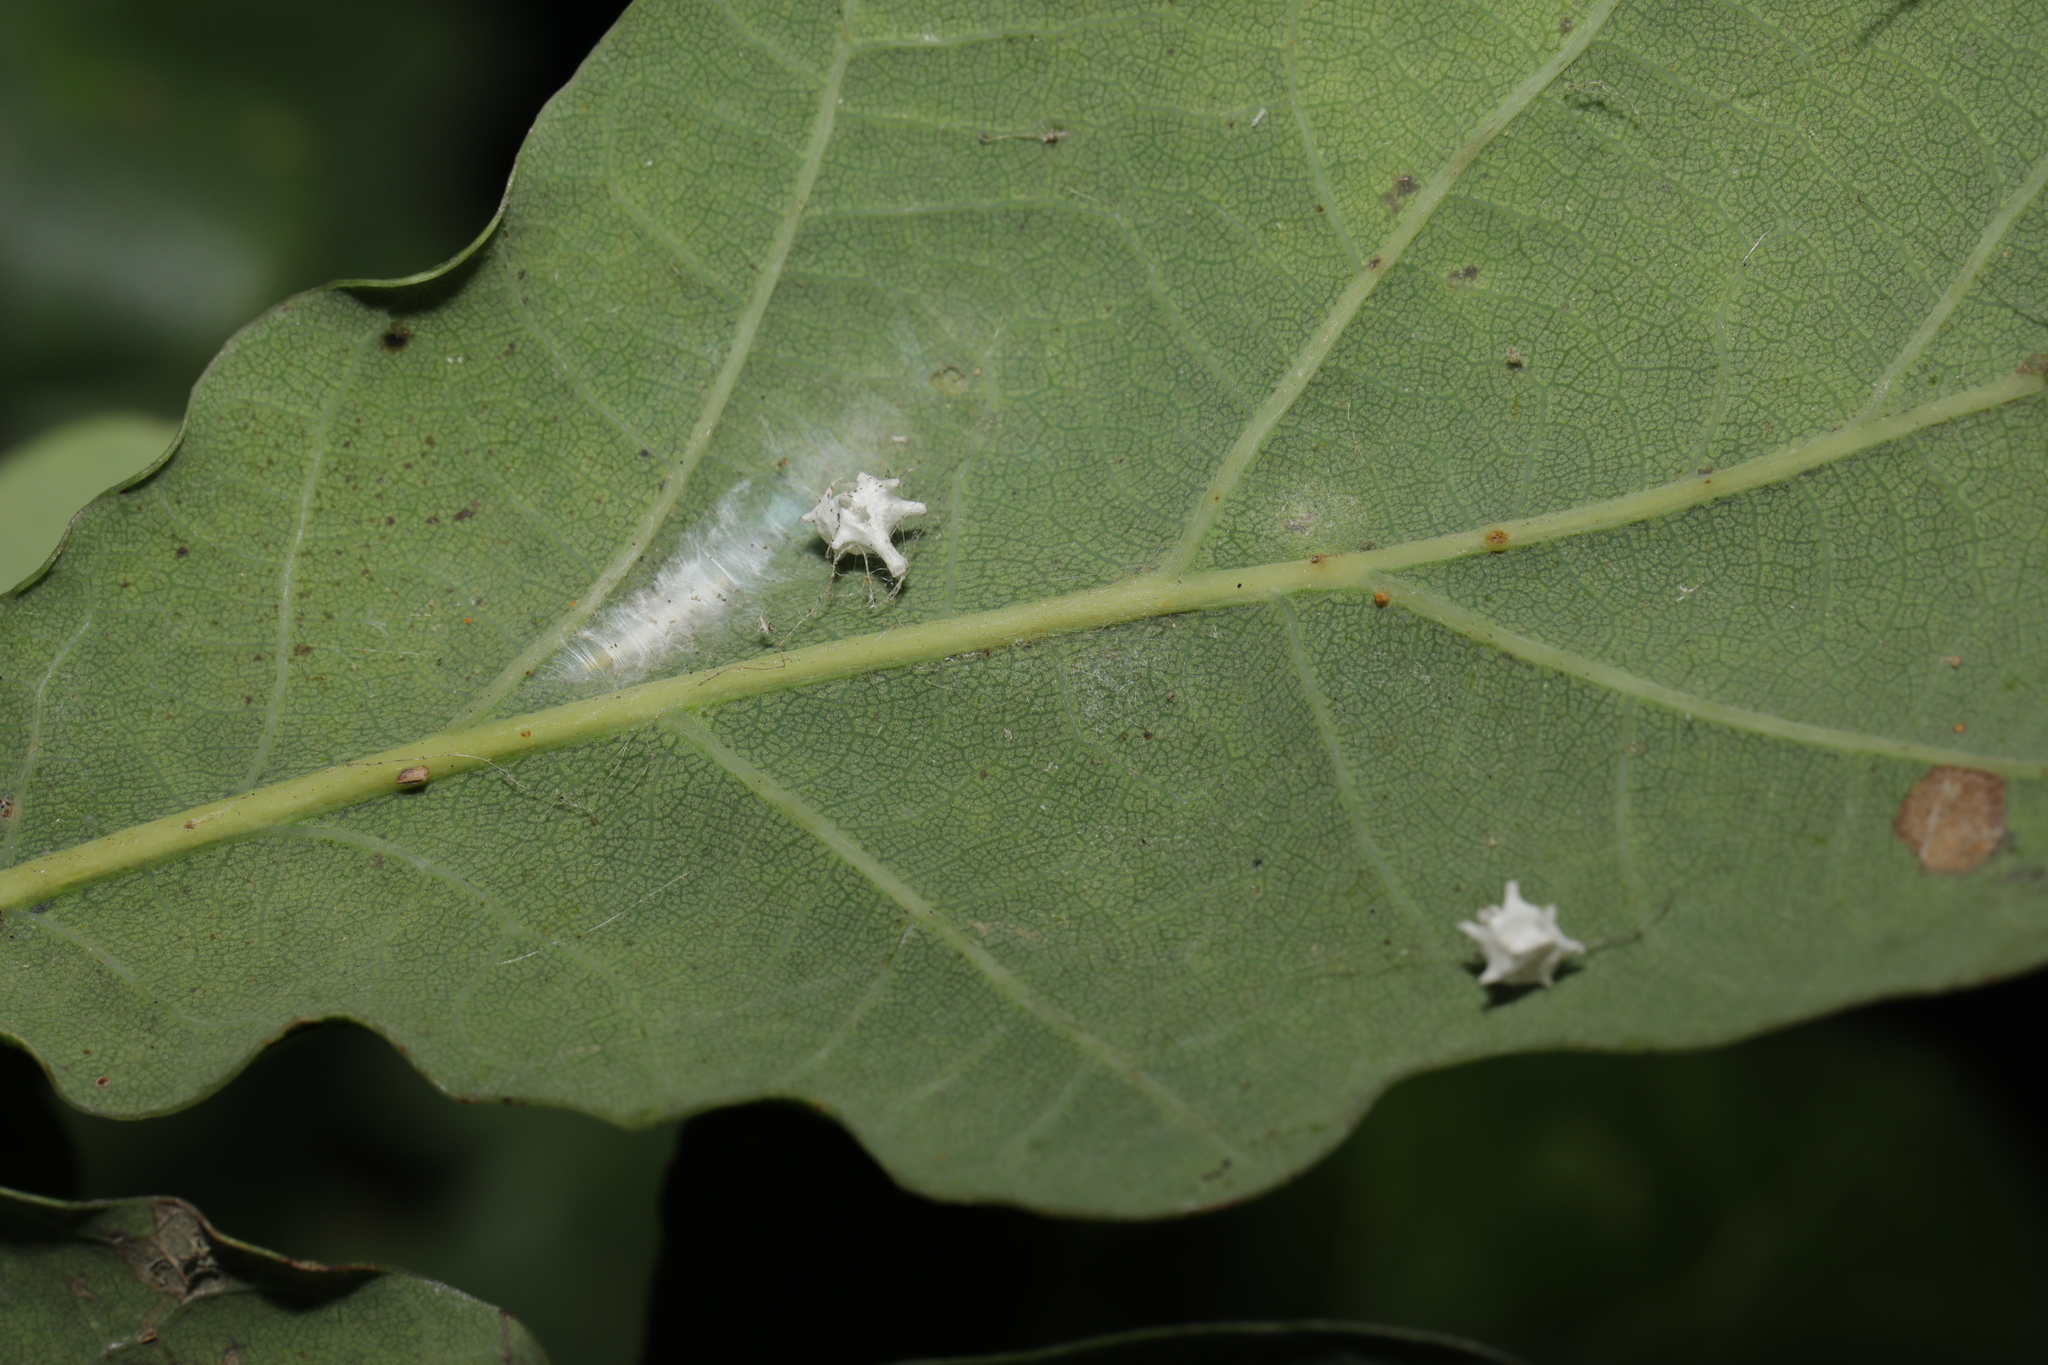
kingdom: Animalia
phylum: Arthropoda
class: Arachnida
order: Araneae
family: Theridiidae
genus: Paidiscura
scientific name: Paidiscura pallens
